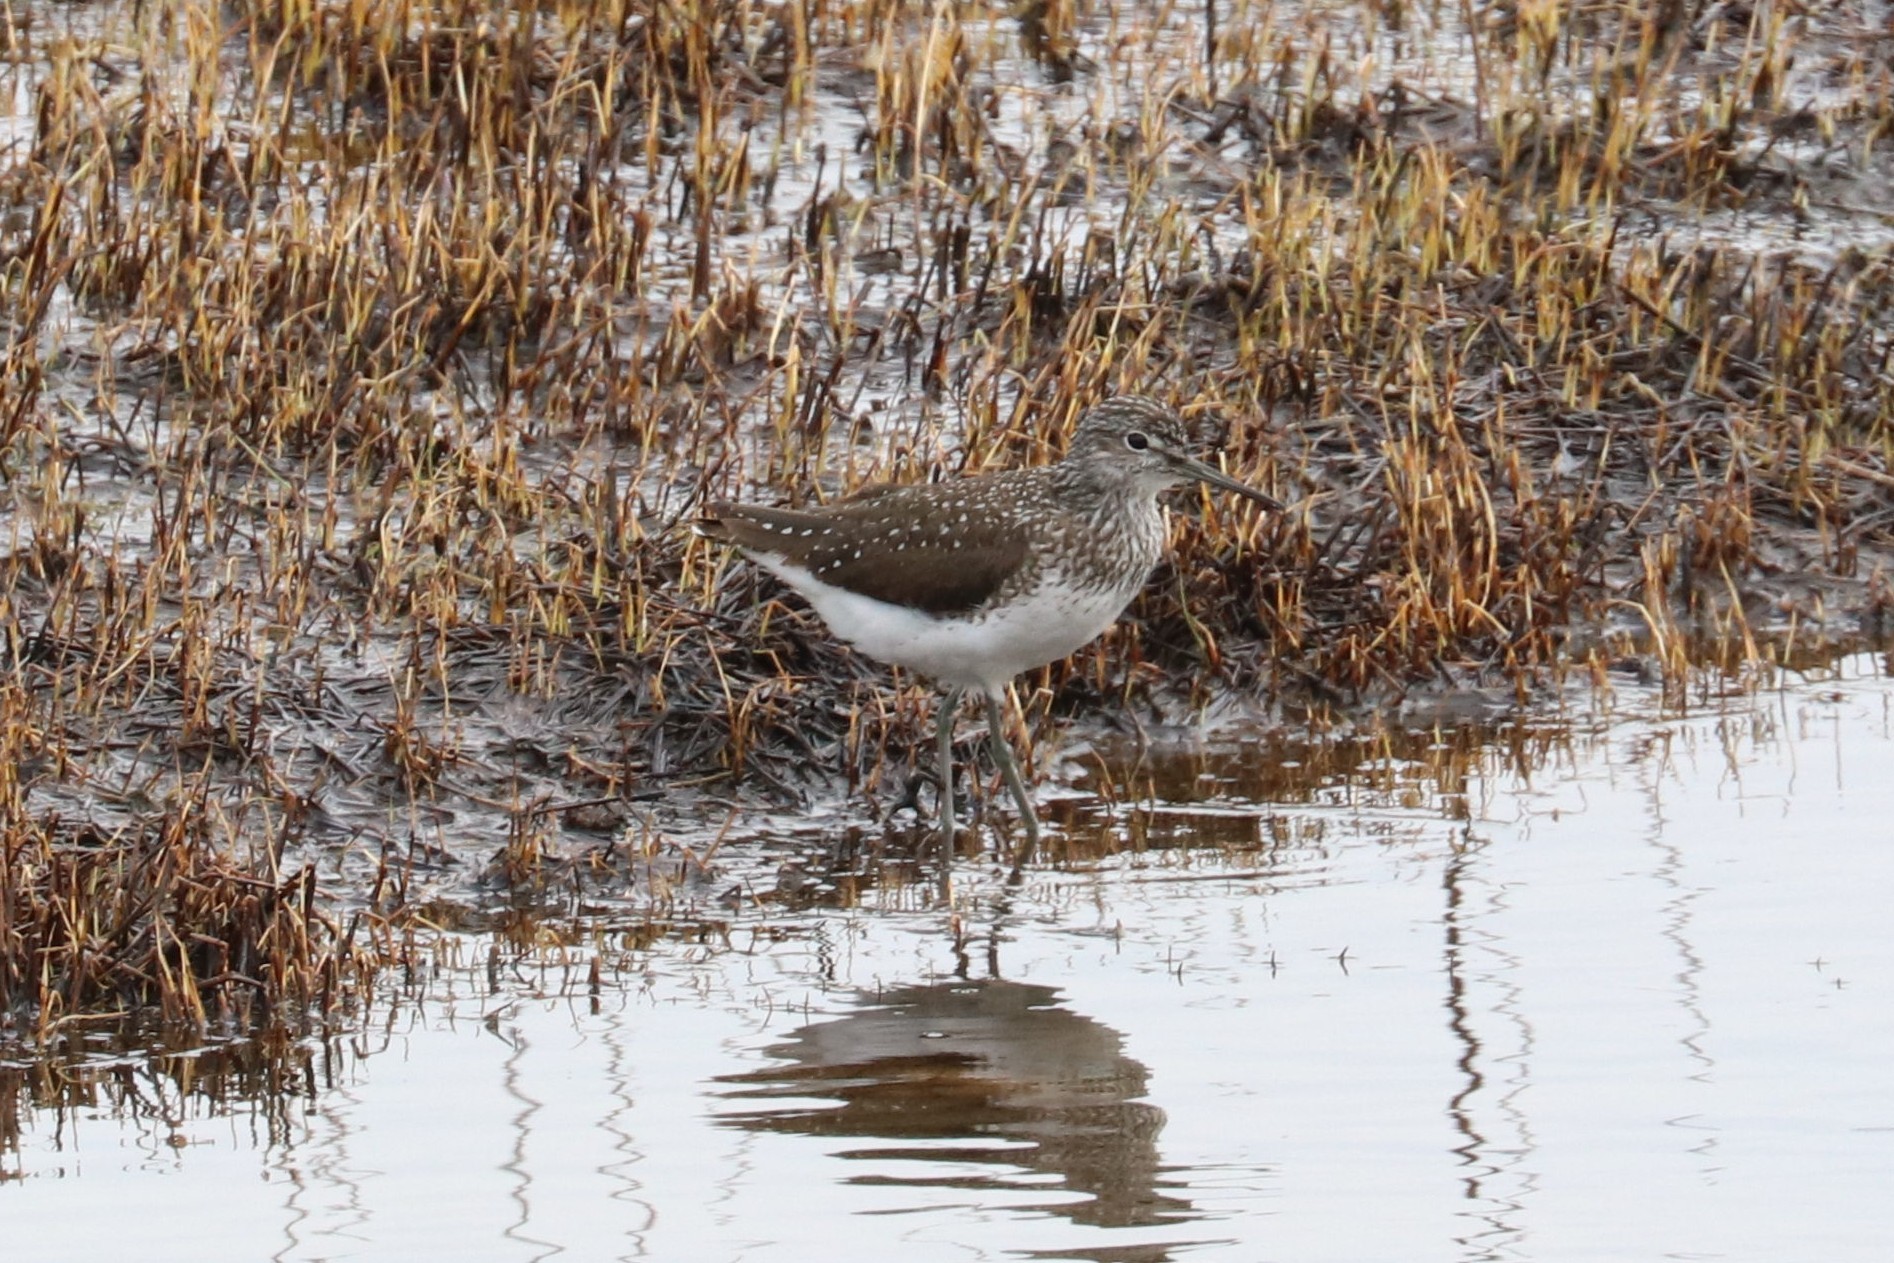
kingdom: Animalia
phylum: Chordata
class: Aves
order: Charadriiformes
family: Scolopacidae
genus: Tringa
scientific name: Tringa ochropus
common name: Green sandpiper
